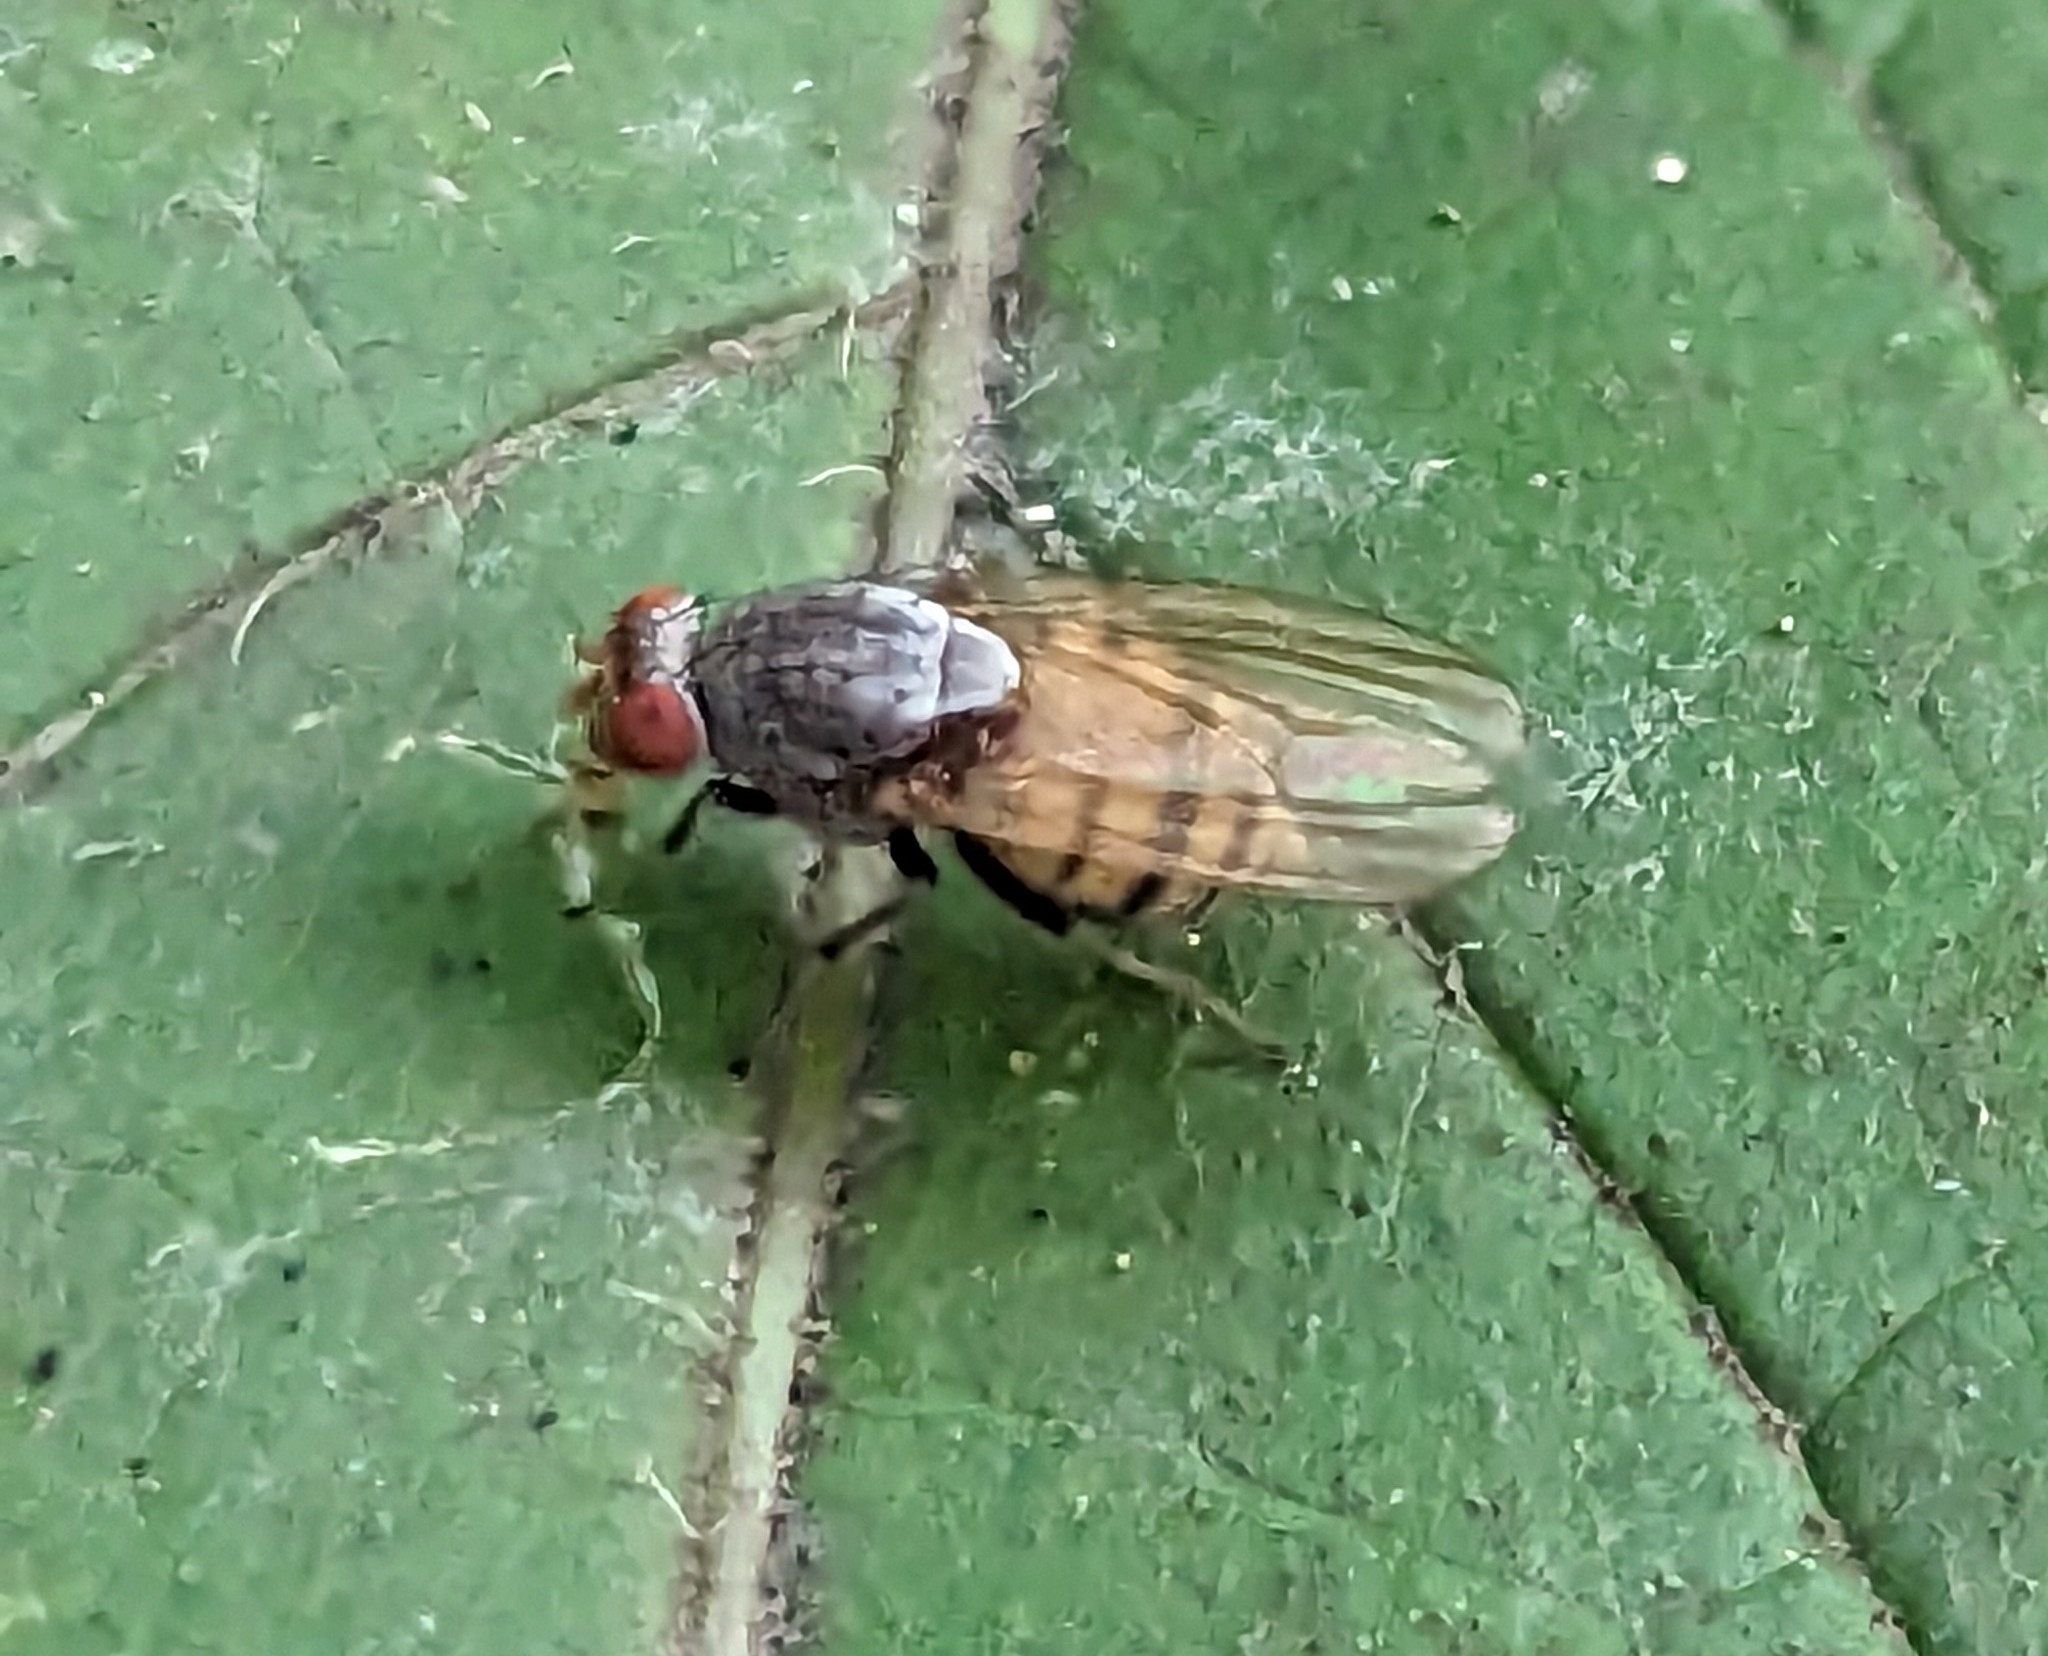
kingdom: Animalia
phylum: Arthropoda
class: Insecta
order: Diptera
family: Lauxaniidae
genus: Minettia
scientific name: Minettia magna
